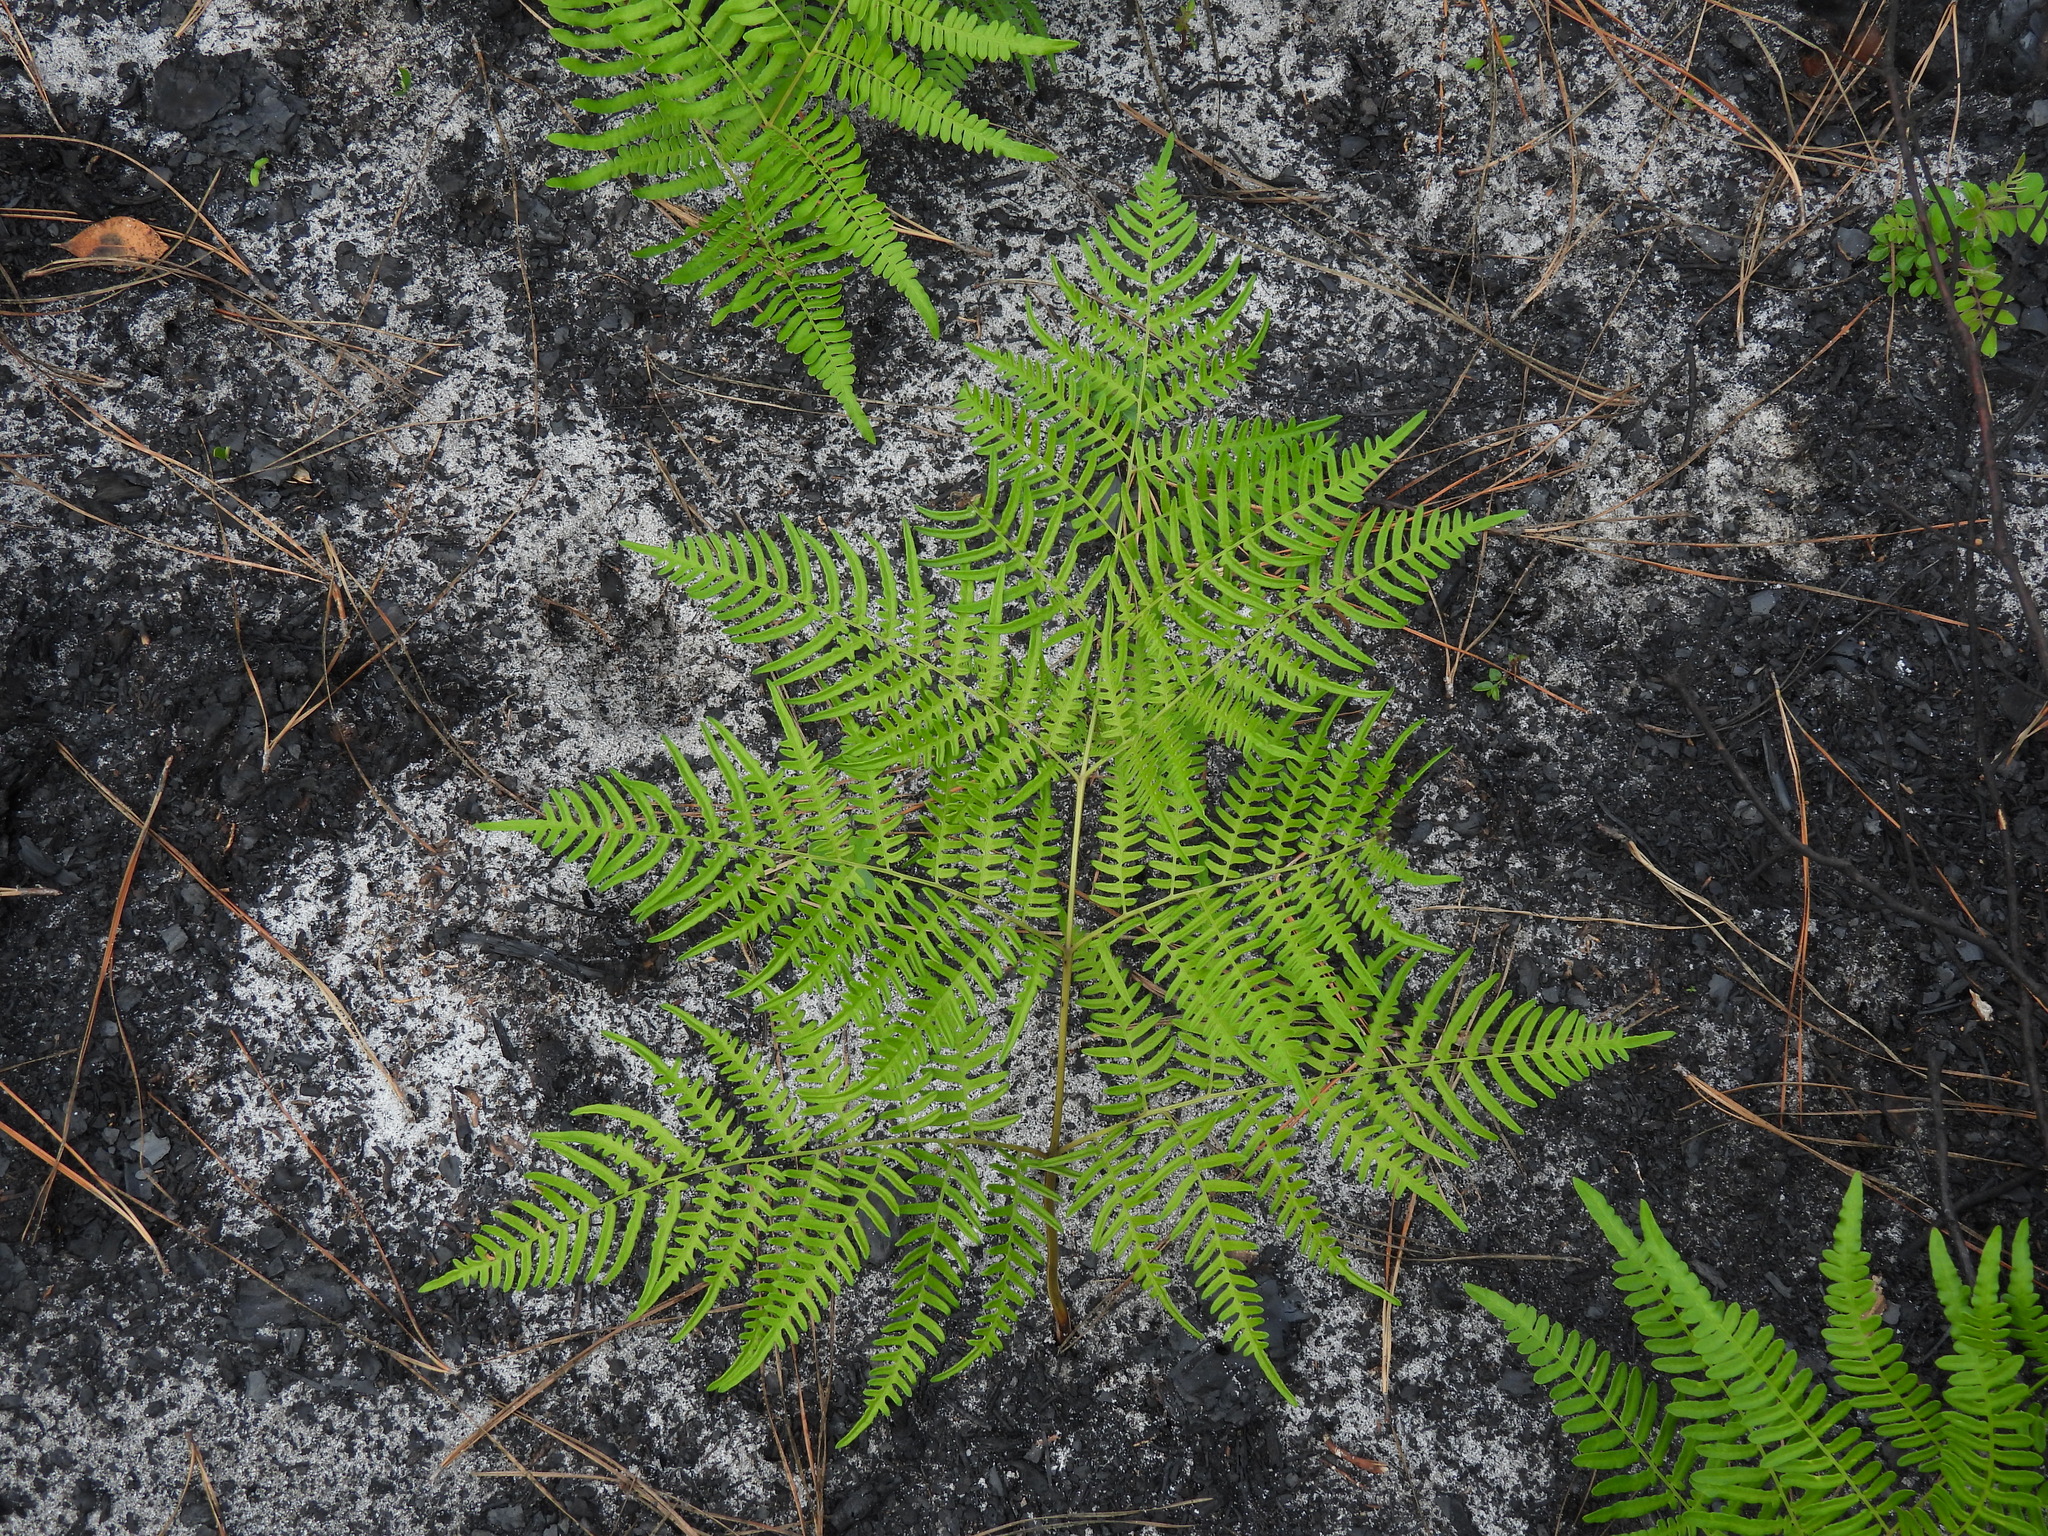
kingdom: Plantae
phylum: Tracheophyta
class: Polypodiopsida
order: Polypodiales
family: Dennstaedtiaceae
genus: Pteridium
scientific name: Pteridium
